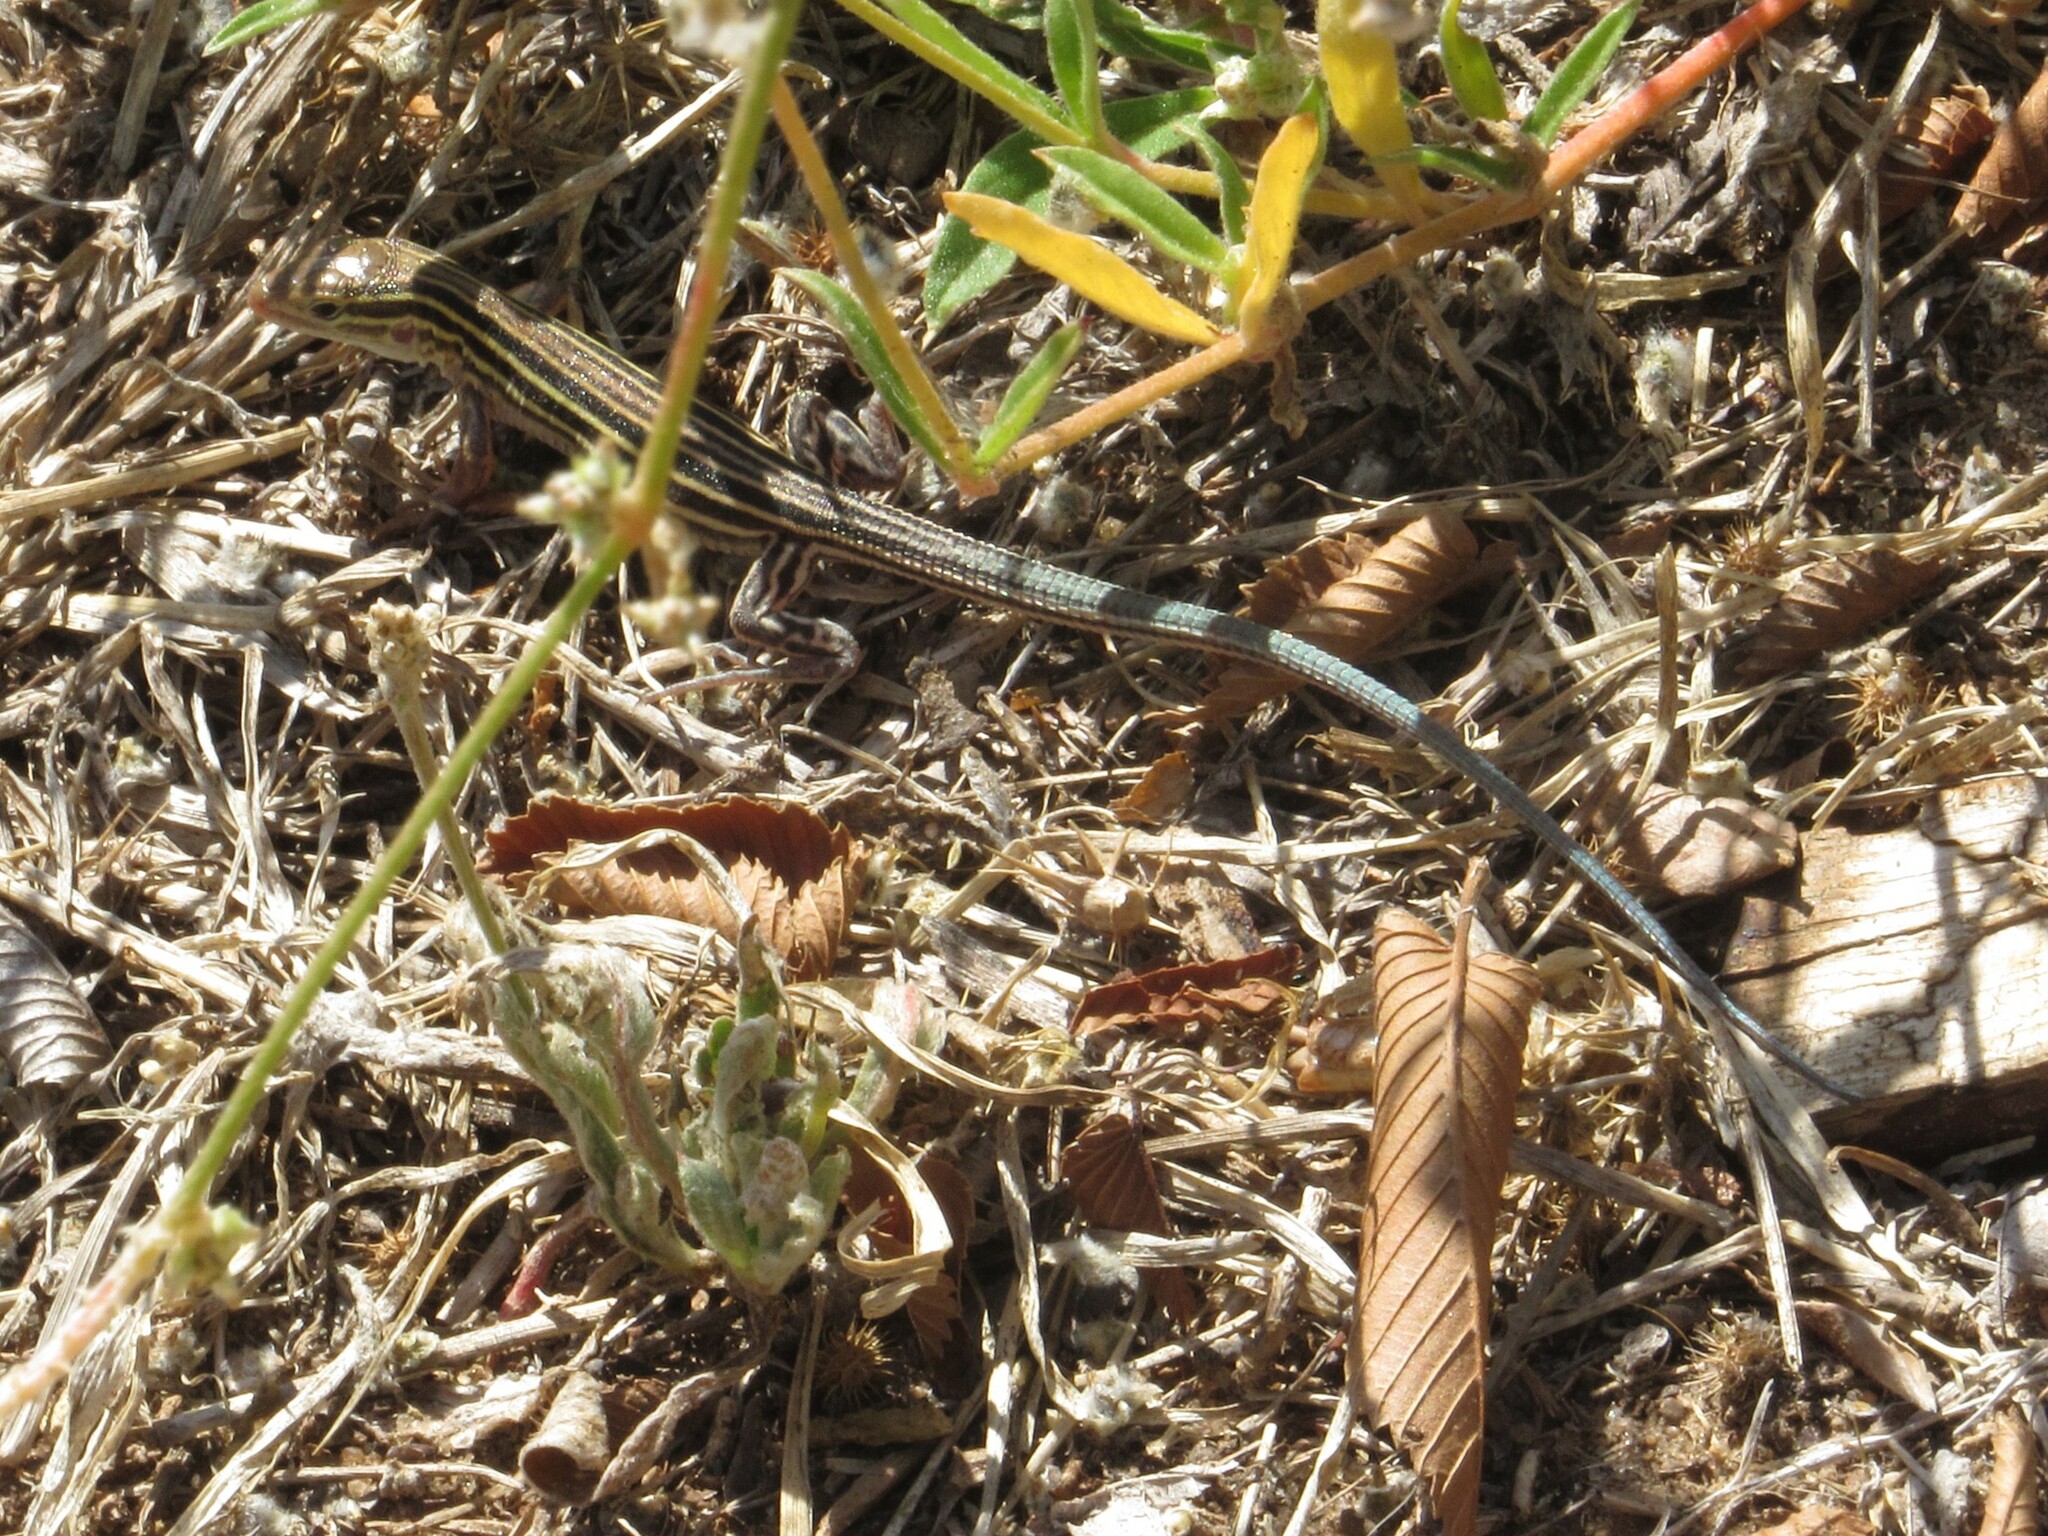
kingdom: Animalia
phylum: Chordata
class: Squamata
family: Teiidae
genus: Aspidoscelis
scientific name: Aspidoscelis sexlineatus
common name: Six-lined racerunner
